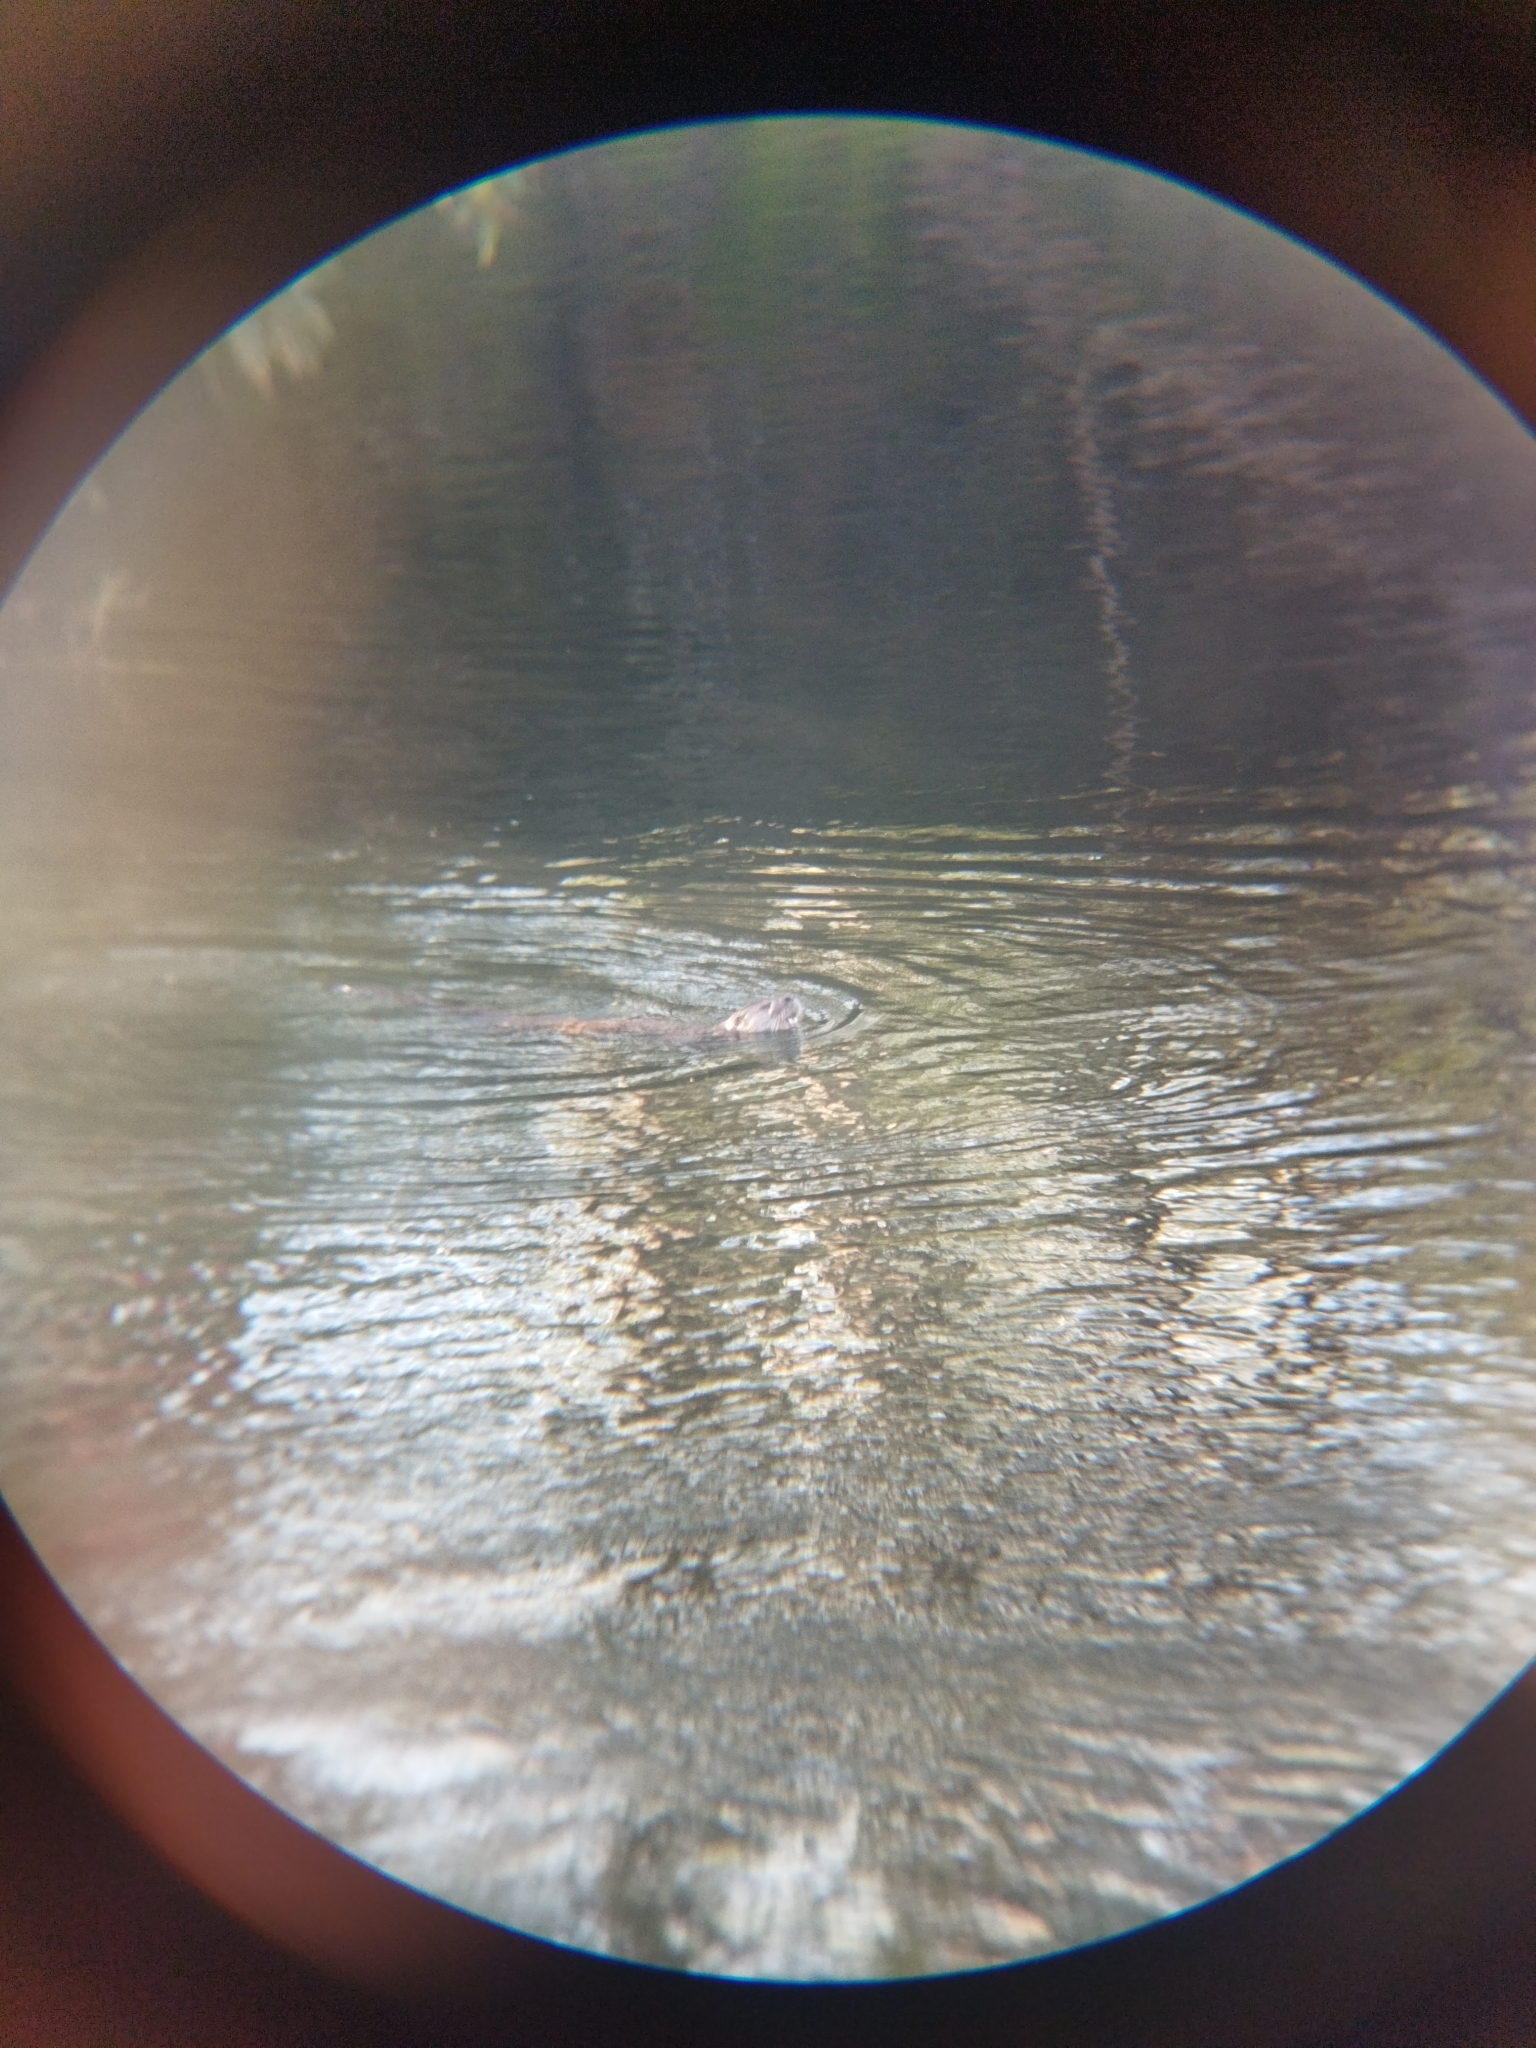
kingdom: Animalia
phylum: Chordata
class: Mammalia
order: Carnivora
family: Mustelidae
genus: Lontra
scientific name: Lontra provocax
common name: Southern river otter
